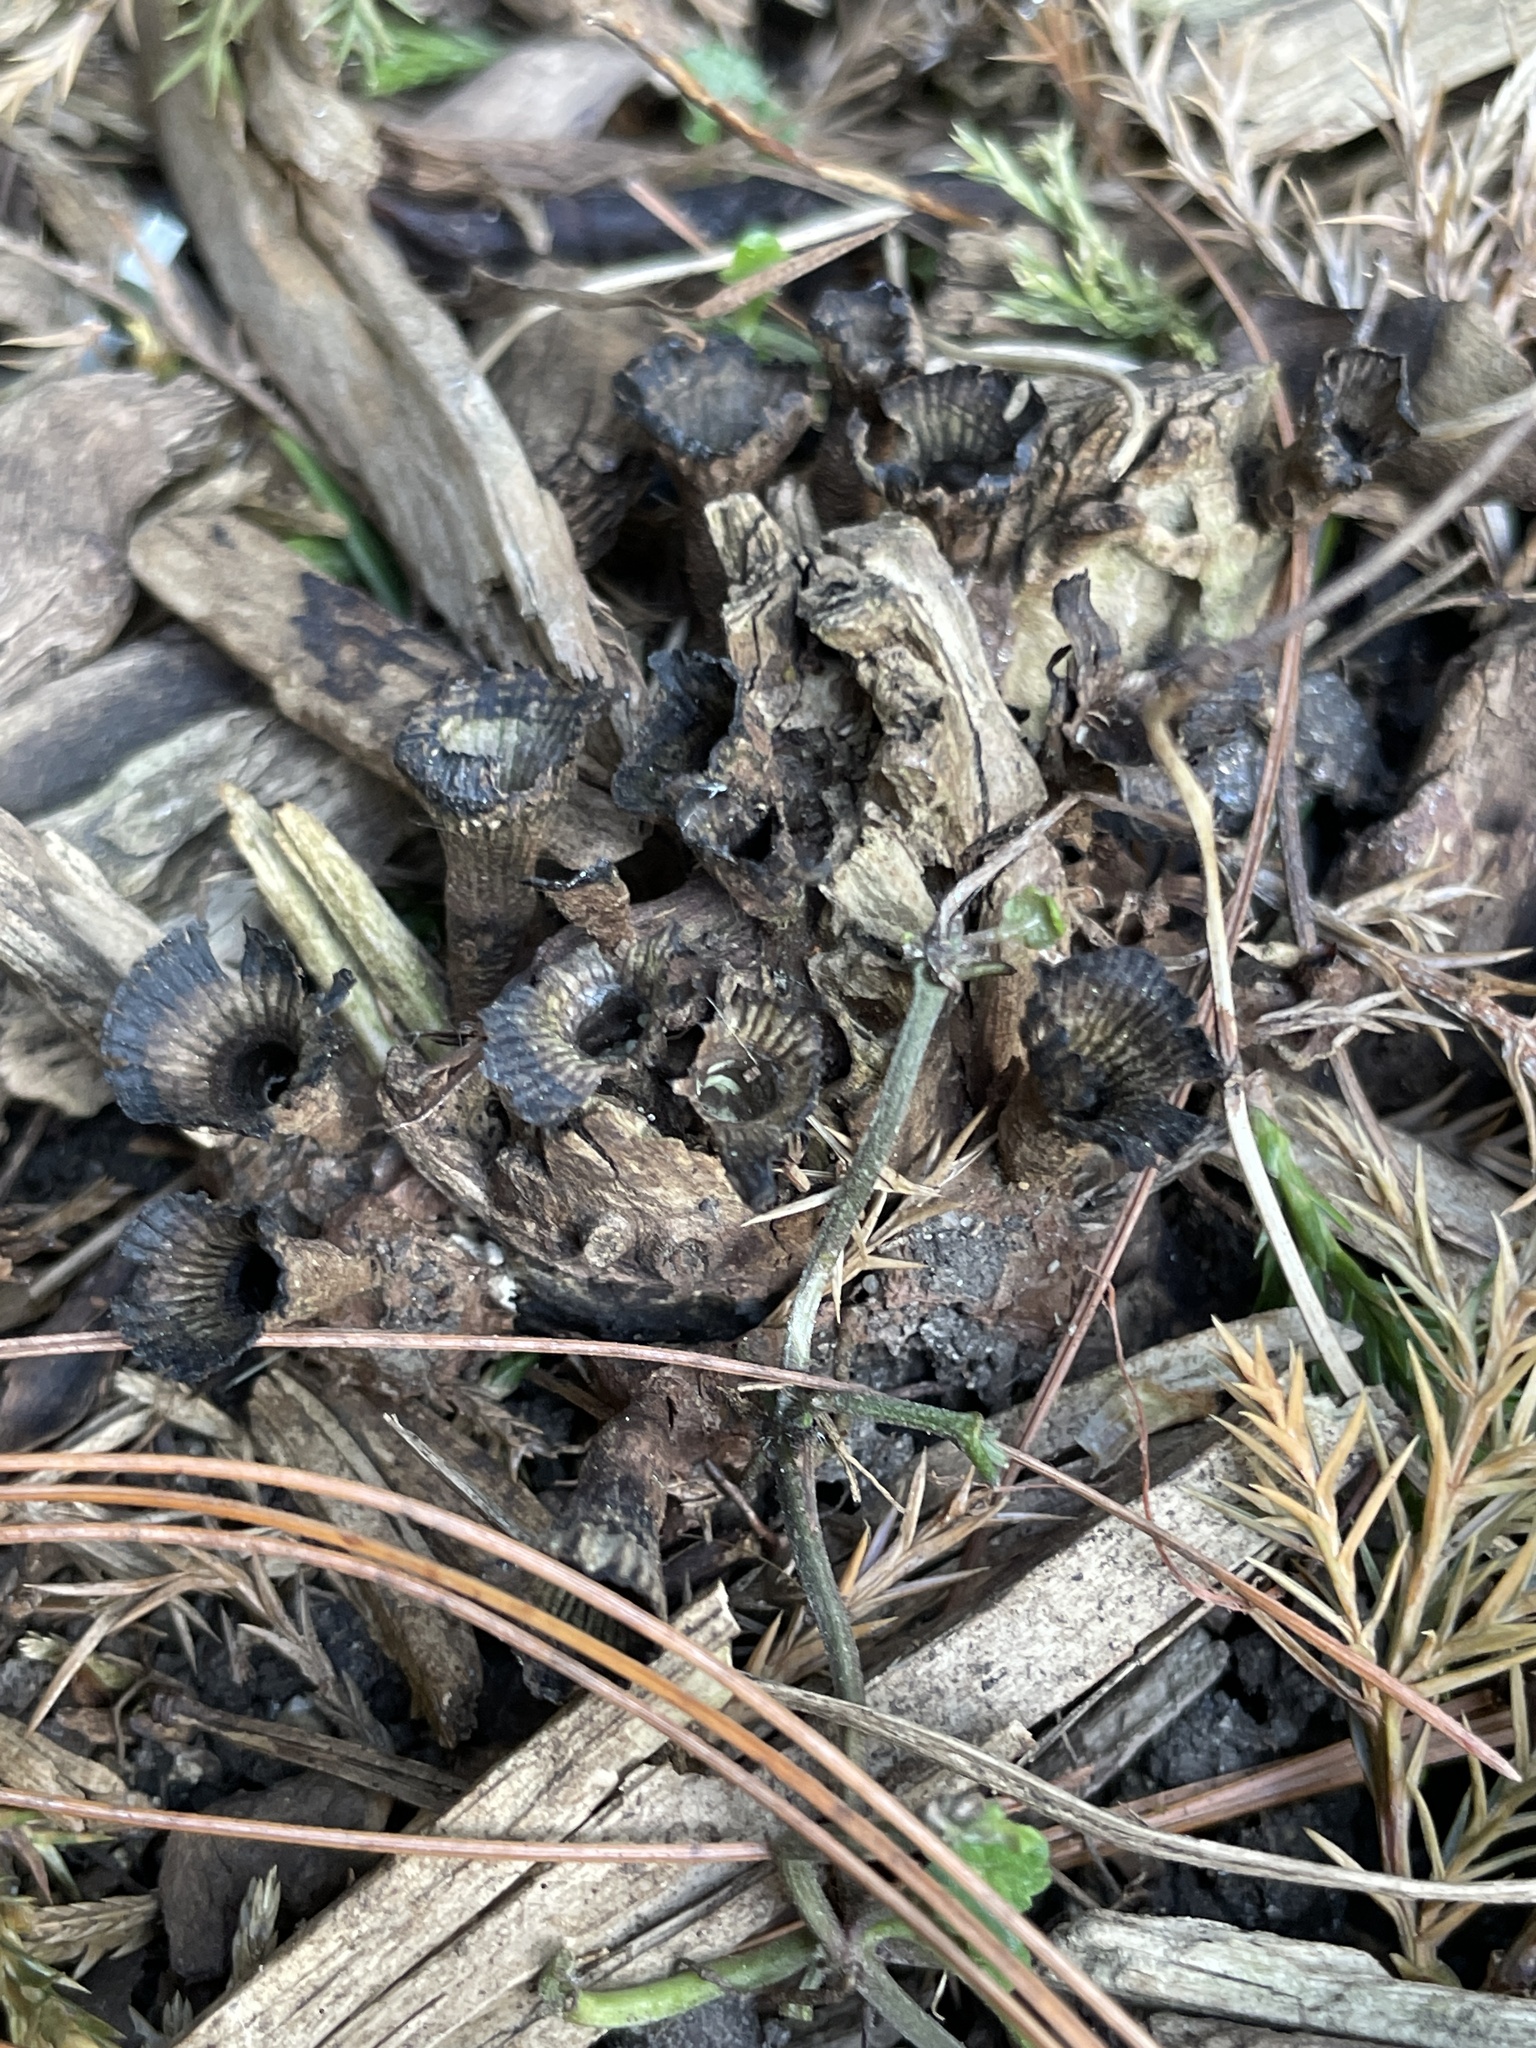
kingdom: Fungi
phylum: Basidiomycota
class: Agaricomycetes
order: Agaricales
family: Agaricaceae
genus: Cyathus
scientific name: Cyathus striatus
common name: Fluted bird's nest
